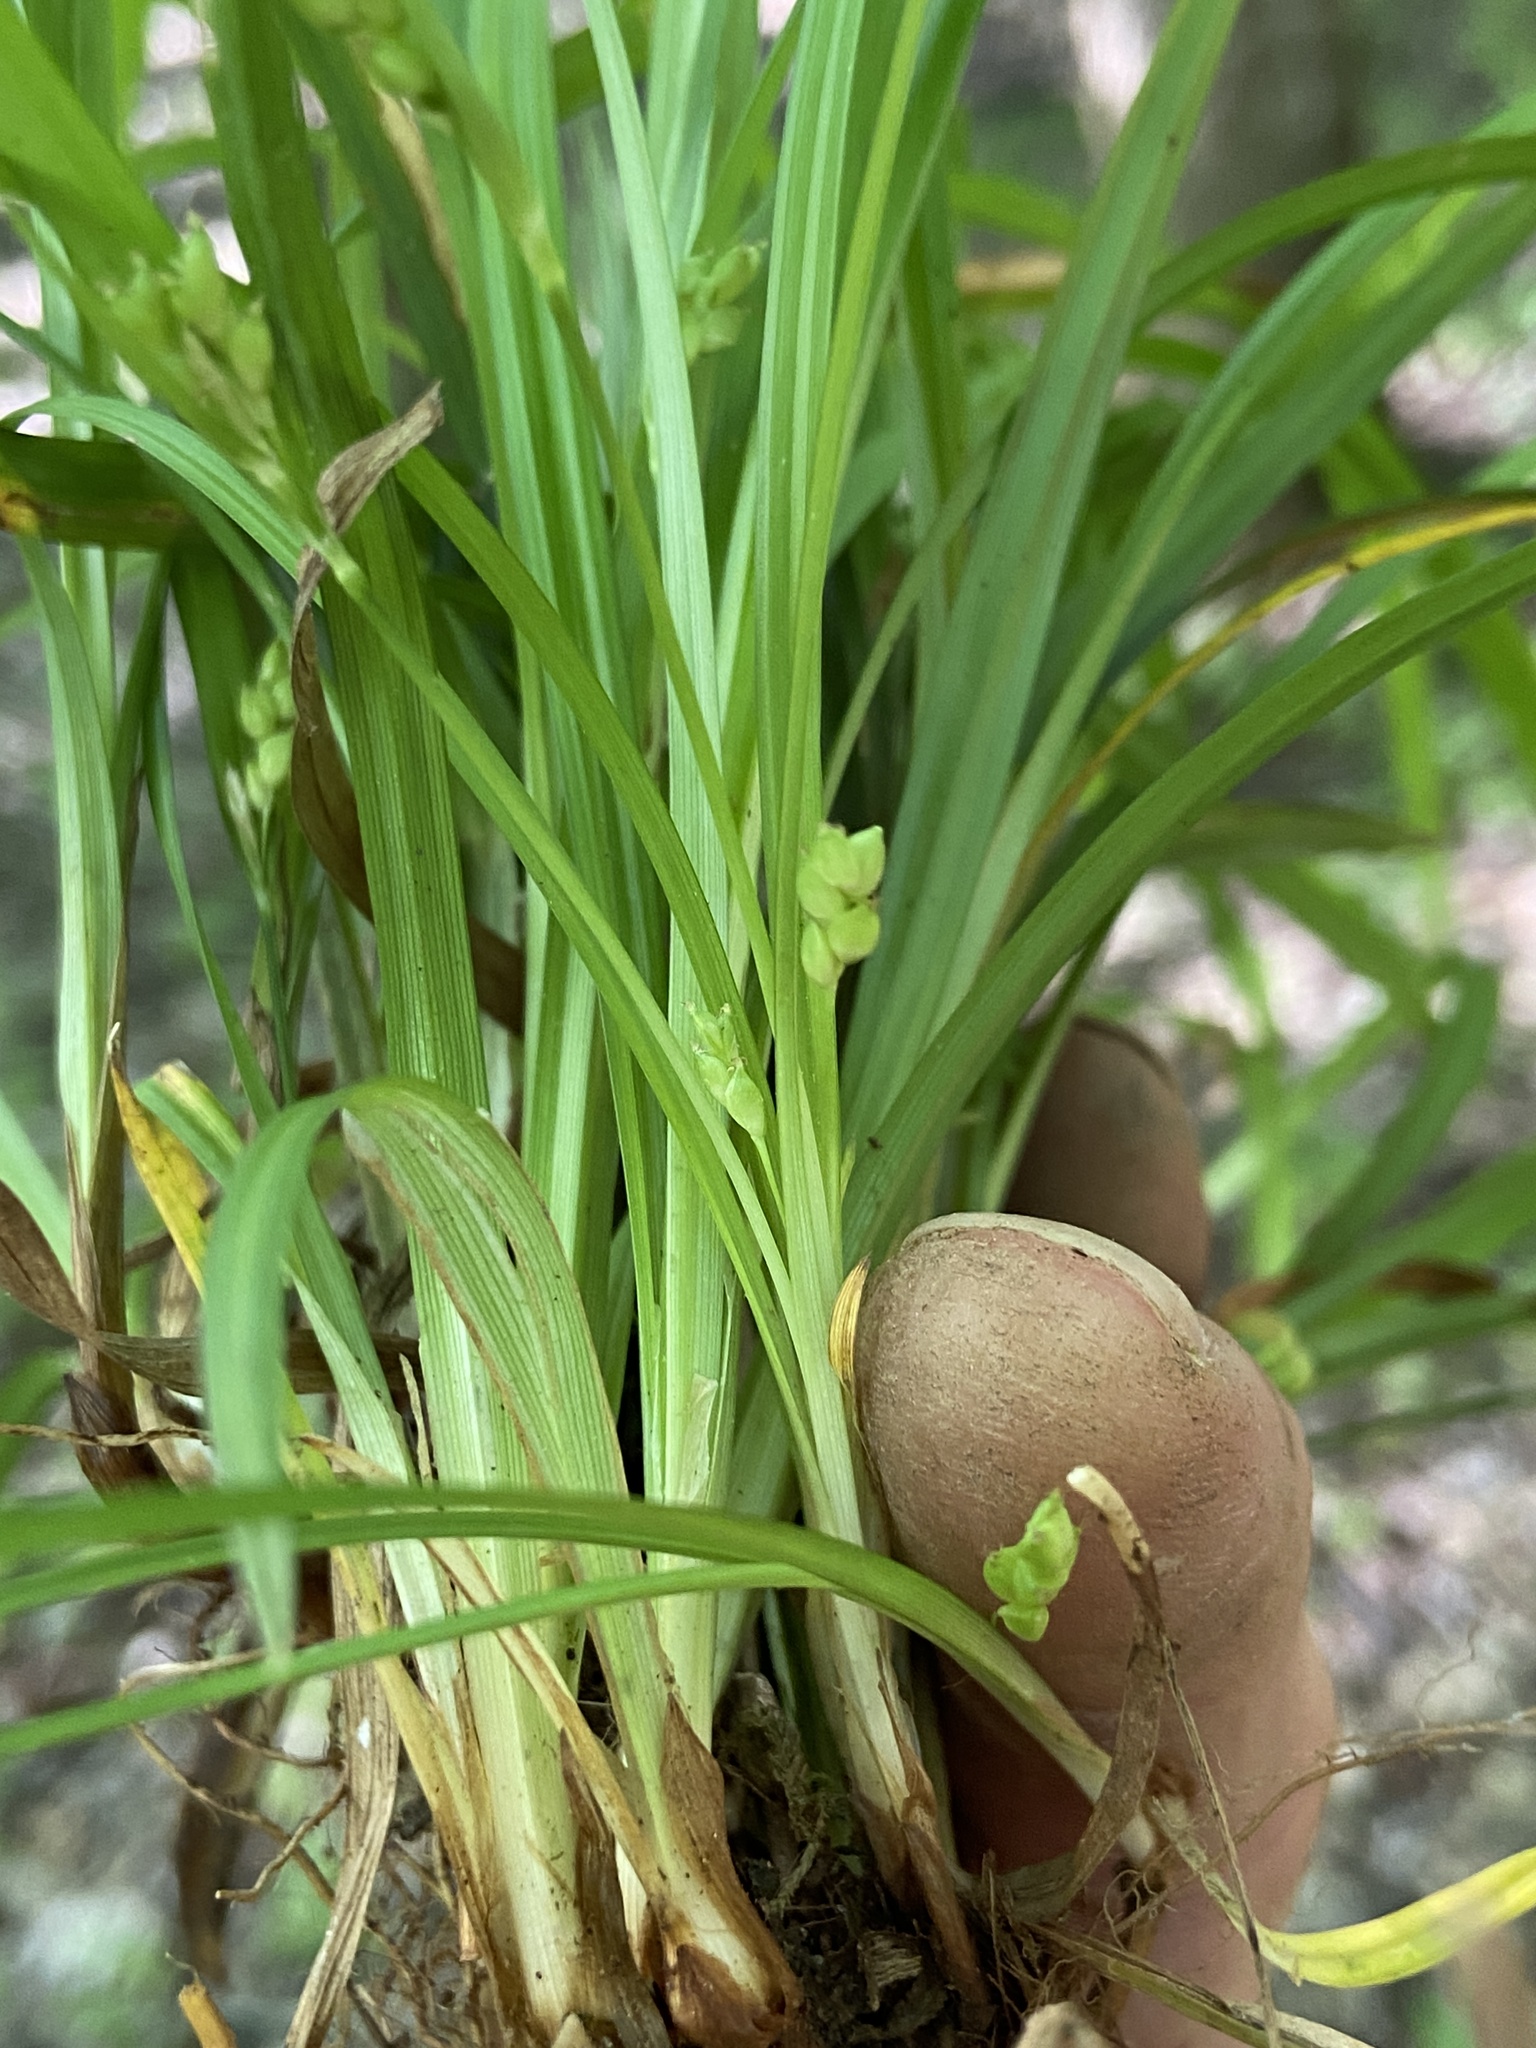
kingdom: Plantae
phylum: Tracheophyta
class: Liliopsida
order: Poales
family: Cyperaceae
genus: Carex
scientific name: Carex abscondita
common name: Thicket sedge
